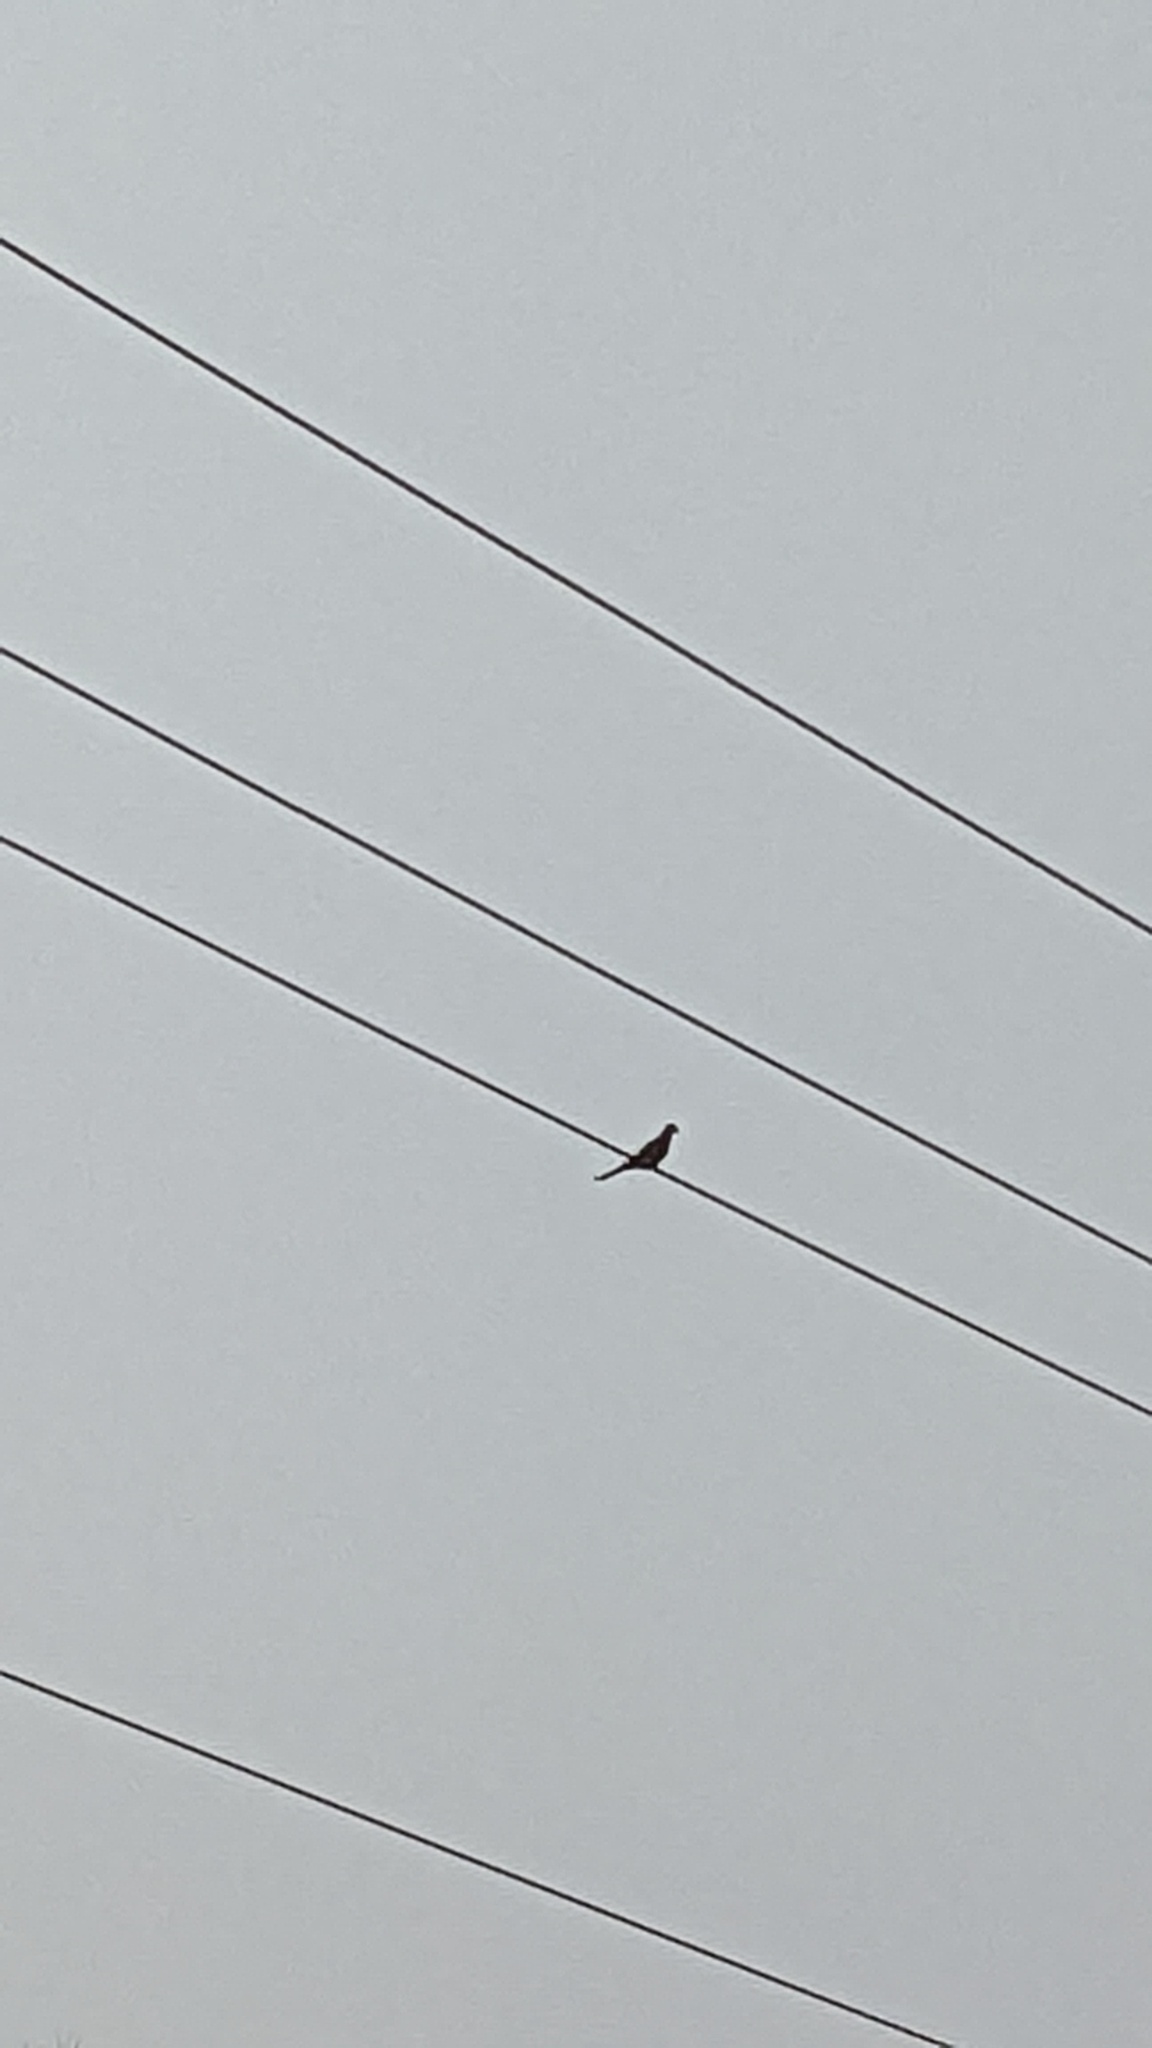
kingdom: Animalia
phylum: Chordata
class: Aves
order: Columbiformes
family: Columbidae
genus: Zenaida
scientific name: Zenaida macroura
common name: Mourning dove
